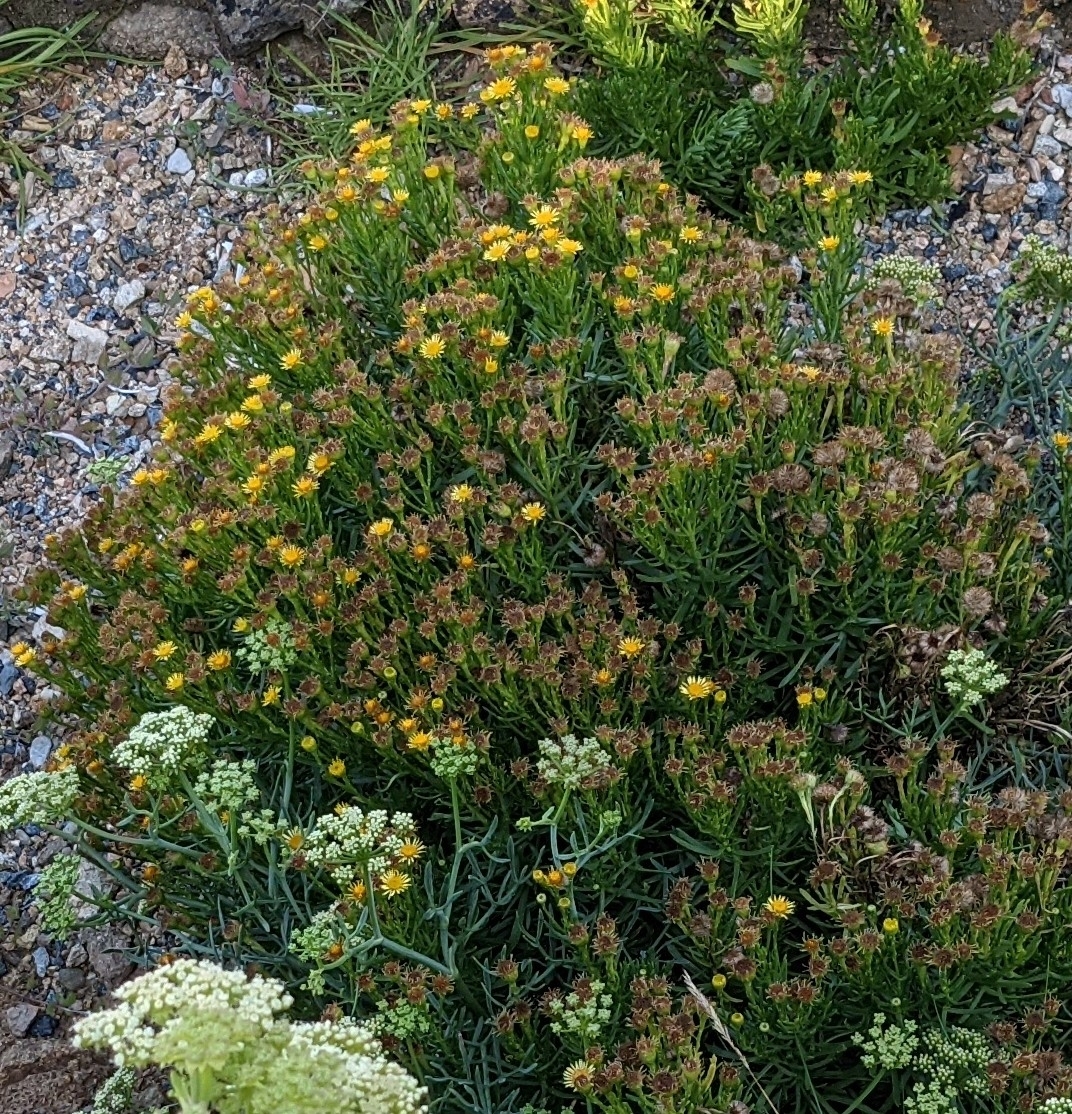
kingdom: Plantae
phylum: Tracheophyta
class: Magnoliopsida
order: Asterales
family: Asteraceae
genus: Limbarda
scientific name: Limbarda crithmoides
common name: Golden samphire
